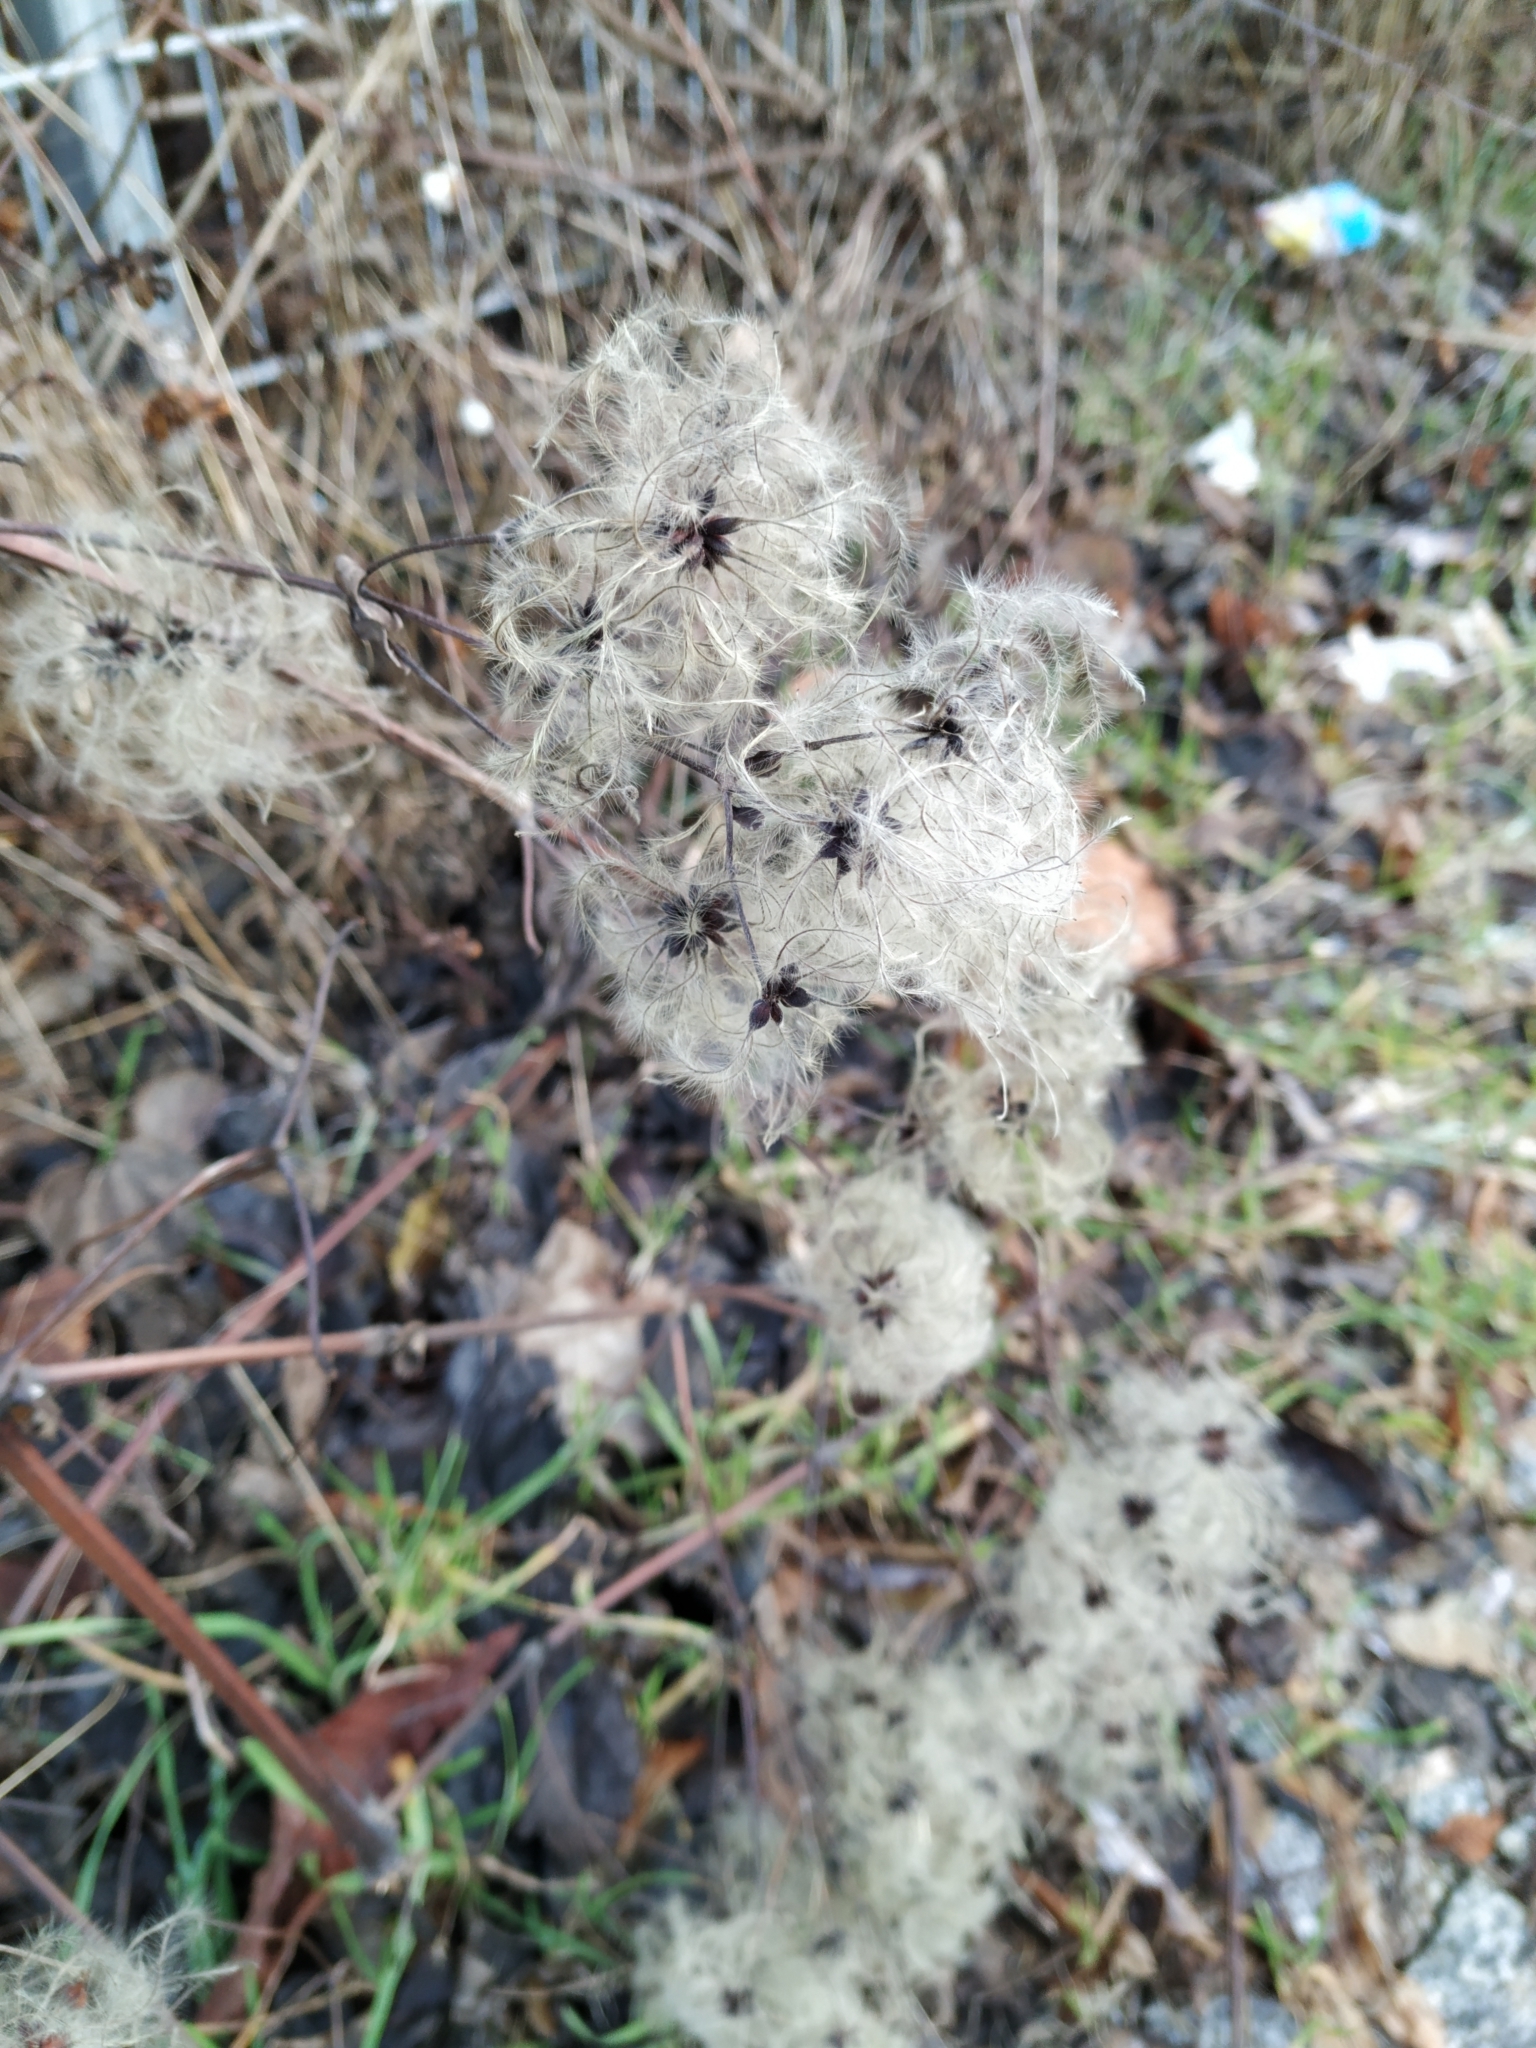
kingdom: Plantae
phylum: Tracheophyta
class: Magnoliopsida
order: Ranunculales
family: Ranunculaceae
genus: Clematis
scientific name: Clematis vitalba
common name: Evergreen clematis
